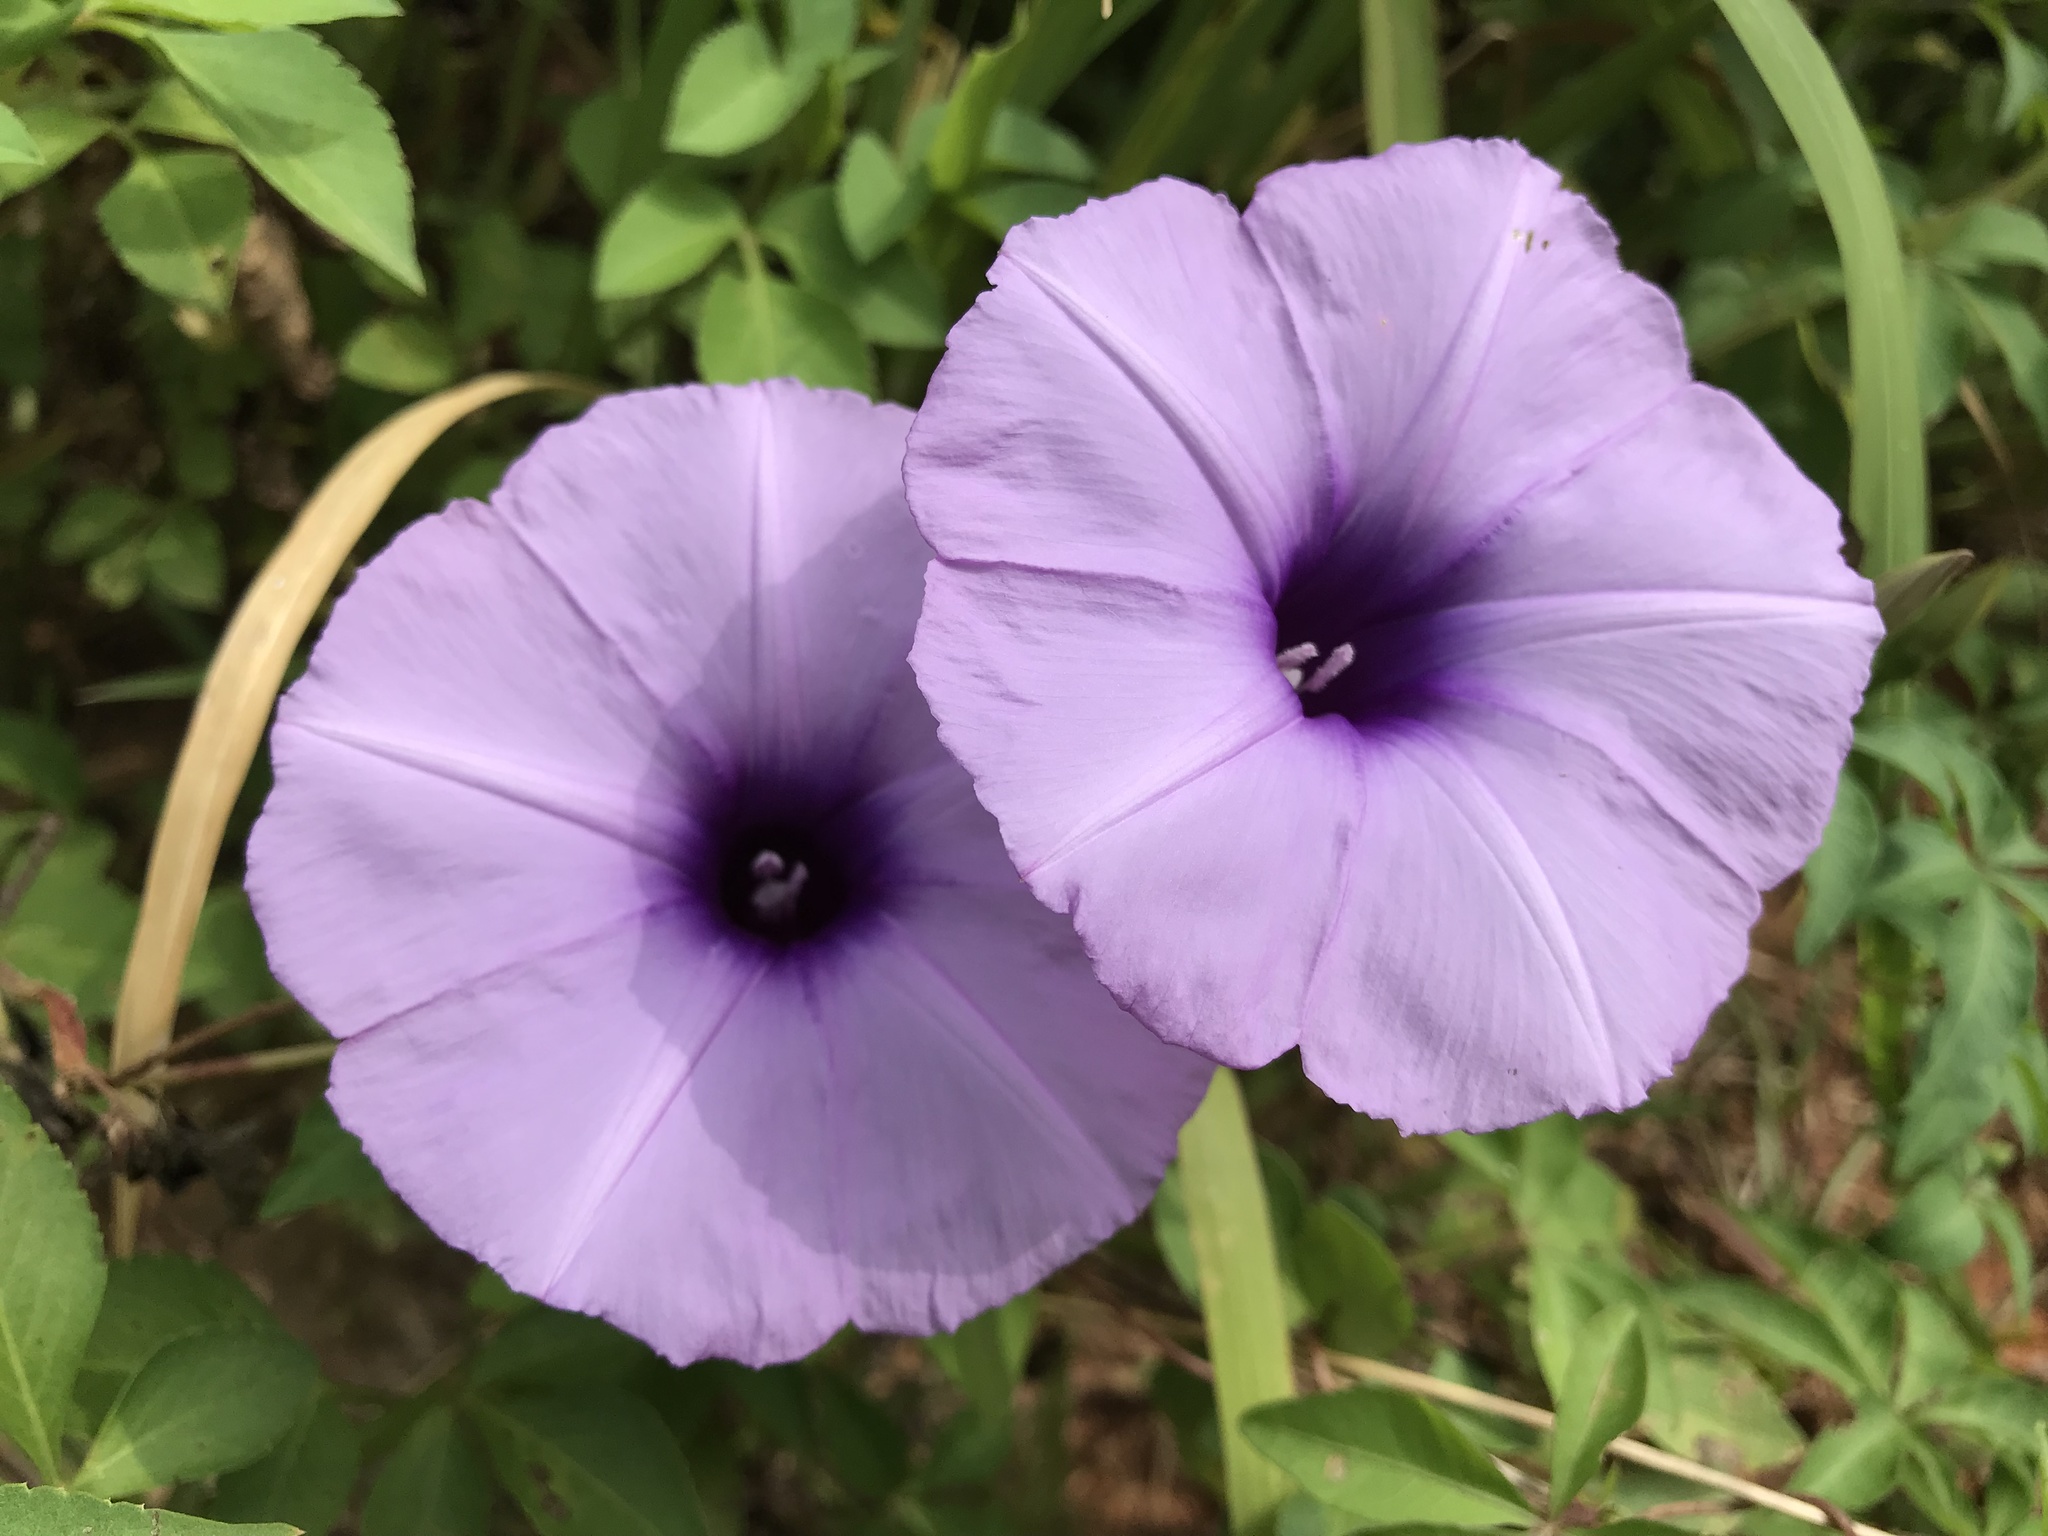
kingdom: Plantae
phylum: Tracheophyta
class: Magnoliopsida
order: Solanales
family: Convolvulaceae
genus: Ipomoea
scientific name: Ipomoea cairica
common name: Mile a minute vine
